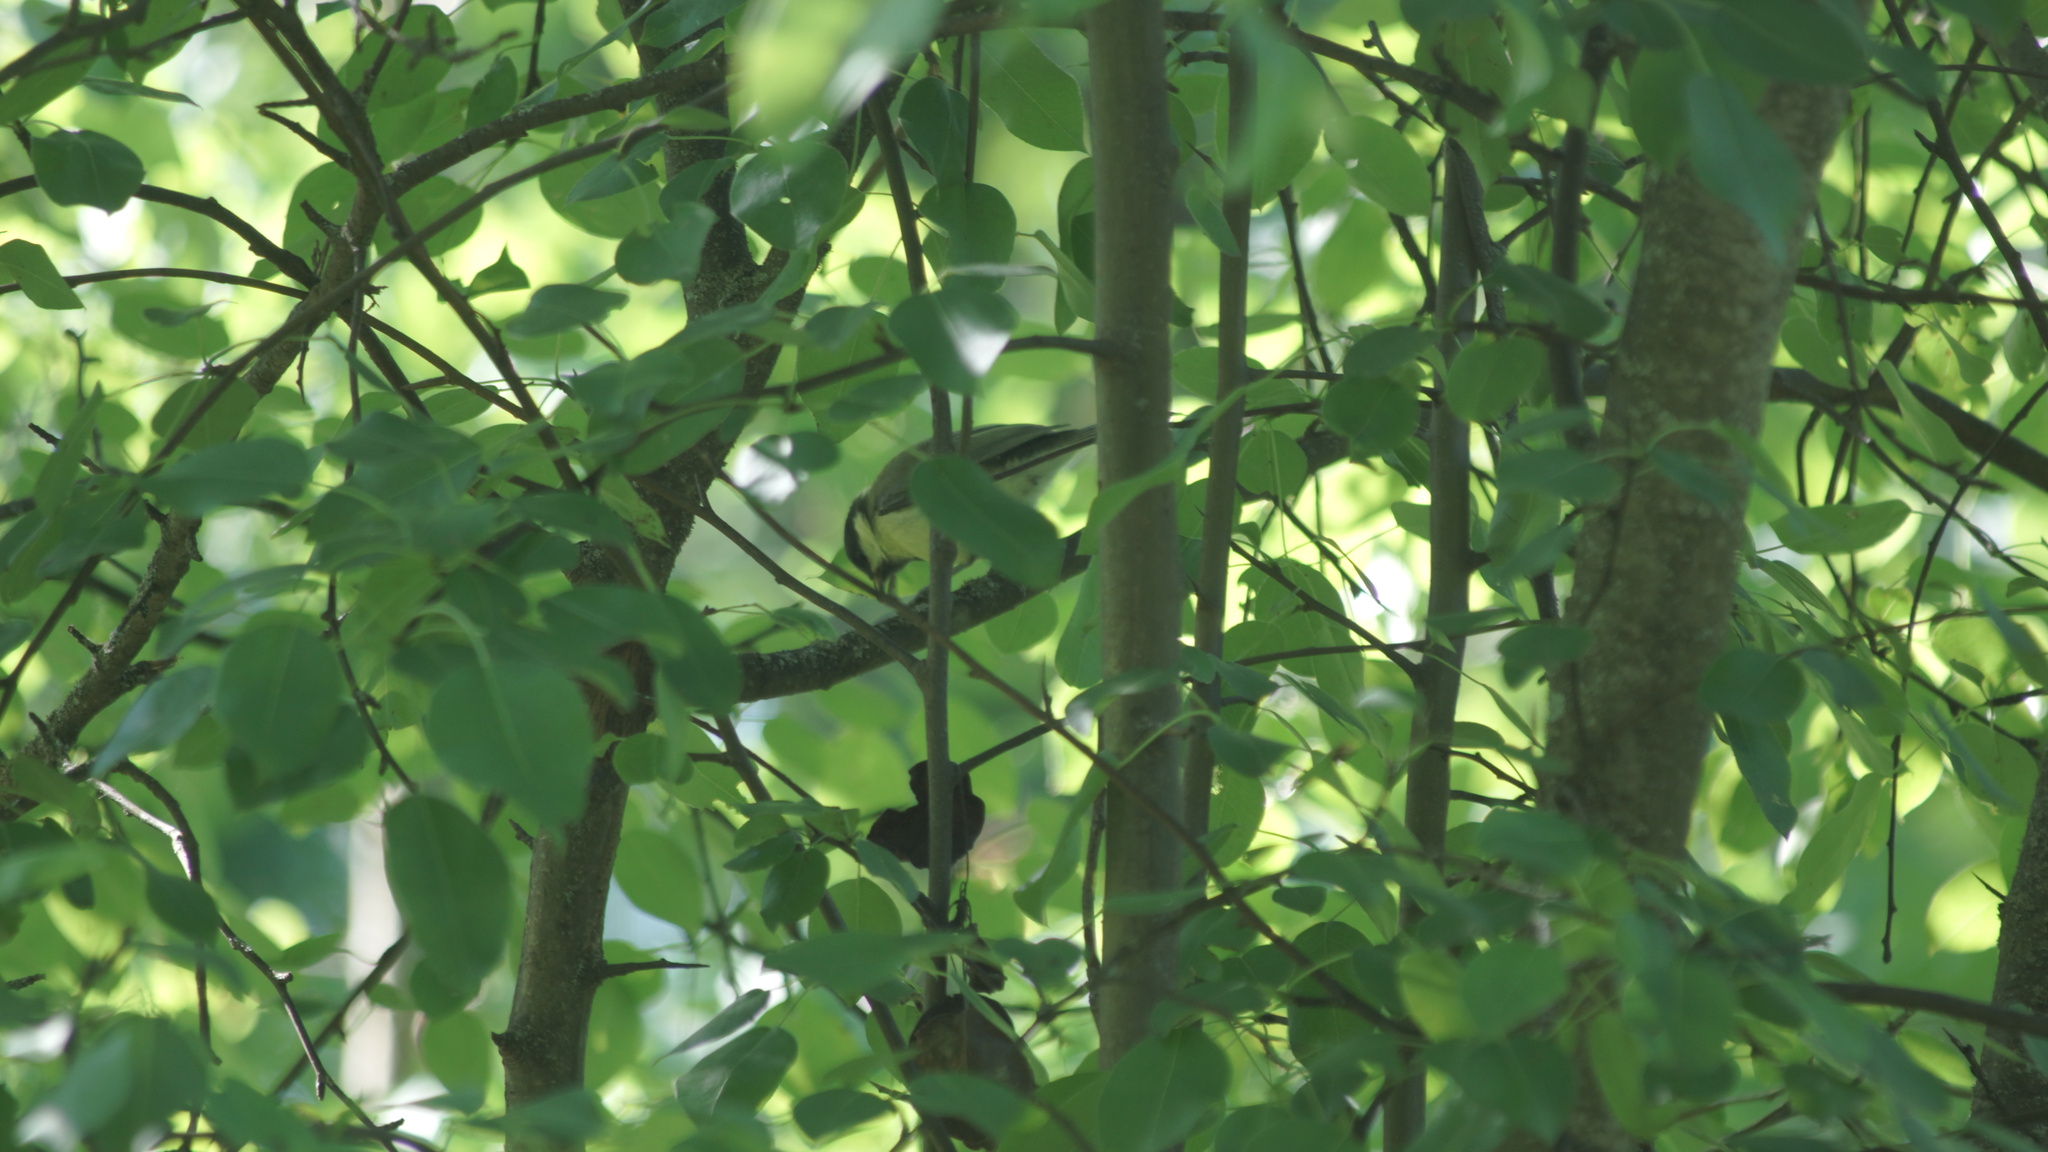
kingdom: Animalia
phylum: Chordata
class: Aves
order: Passeriformes
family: Paridae
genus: Parus
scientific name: Parus major
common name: Great tit
